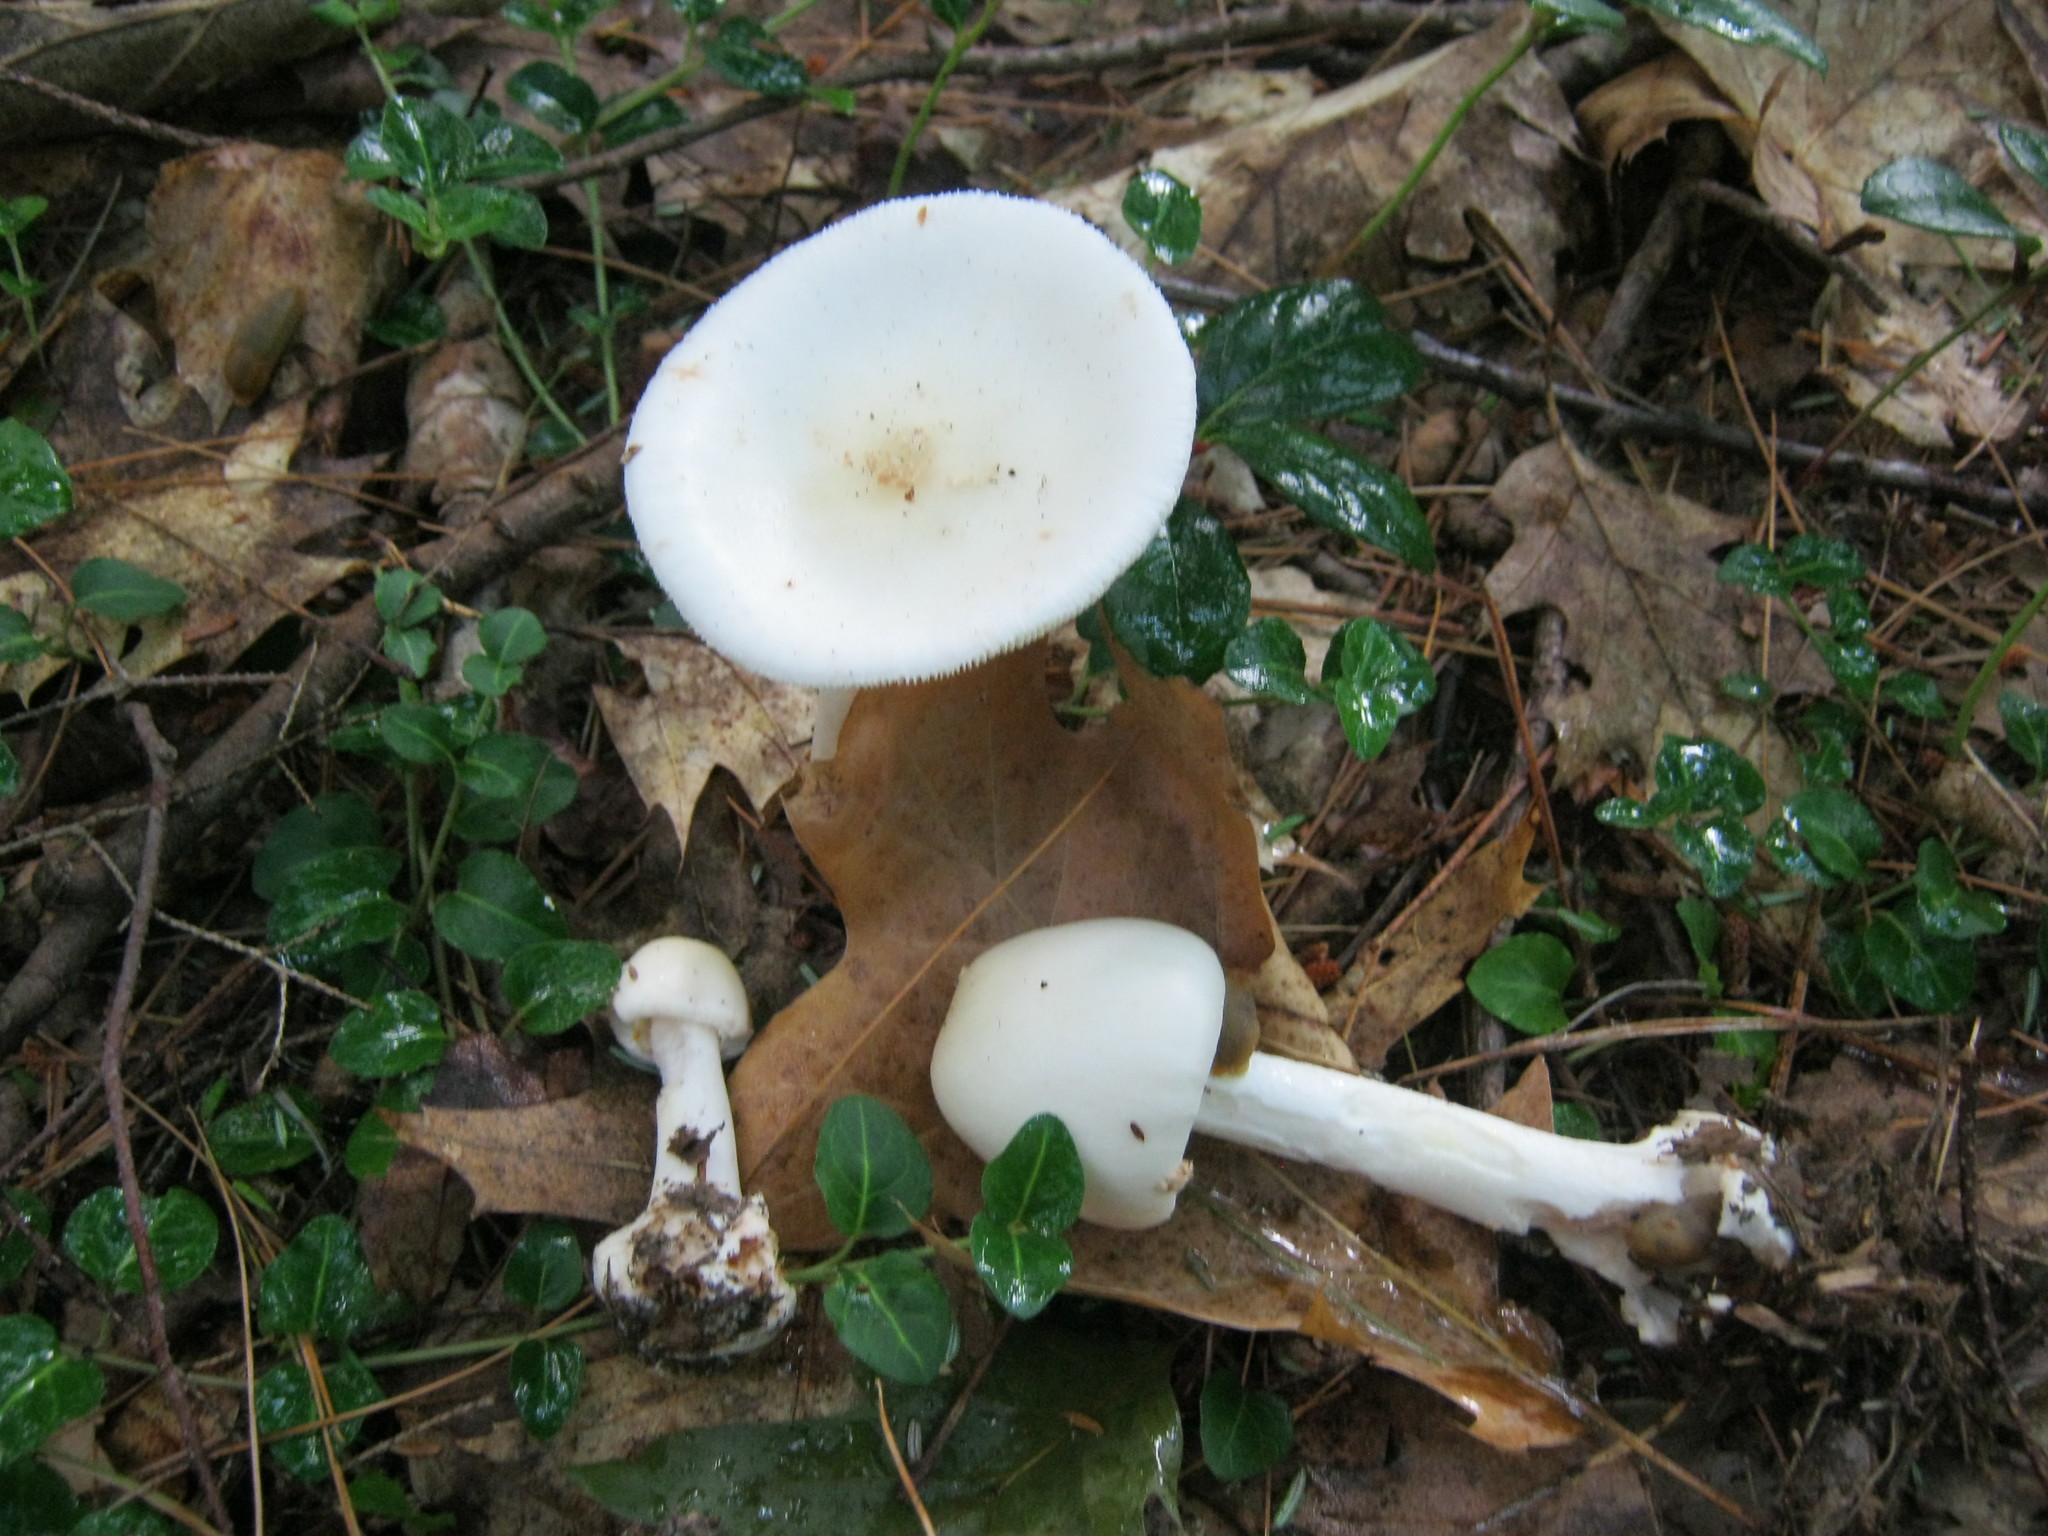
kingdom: Fungi
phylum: Basidiomycota
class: Agaricomycetes
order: Agaricales
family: Amanitaceae
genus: Amanita
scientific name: Amanita brunnescens
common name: Brown american star-footed amanita
